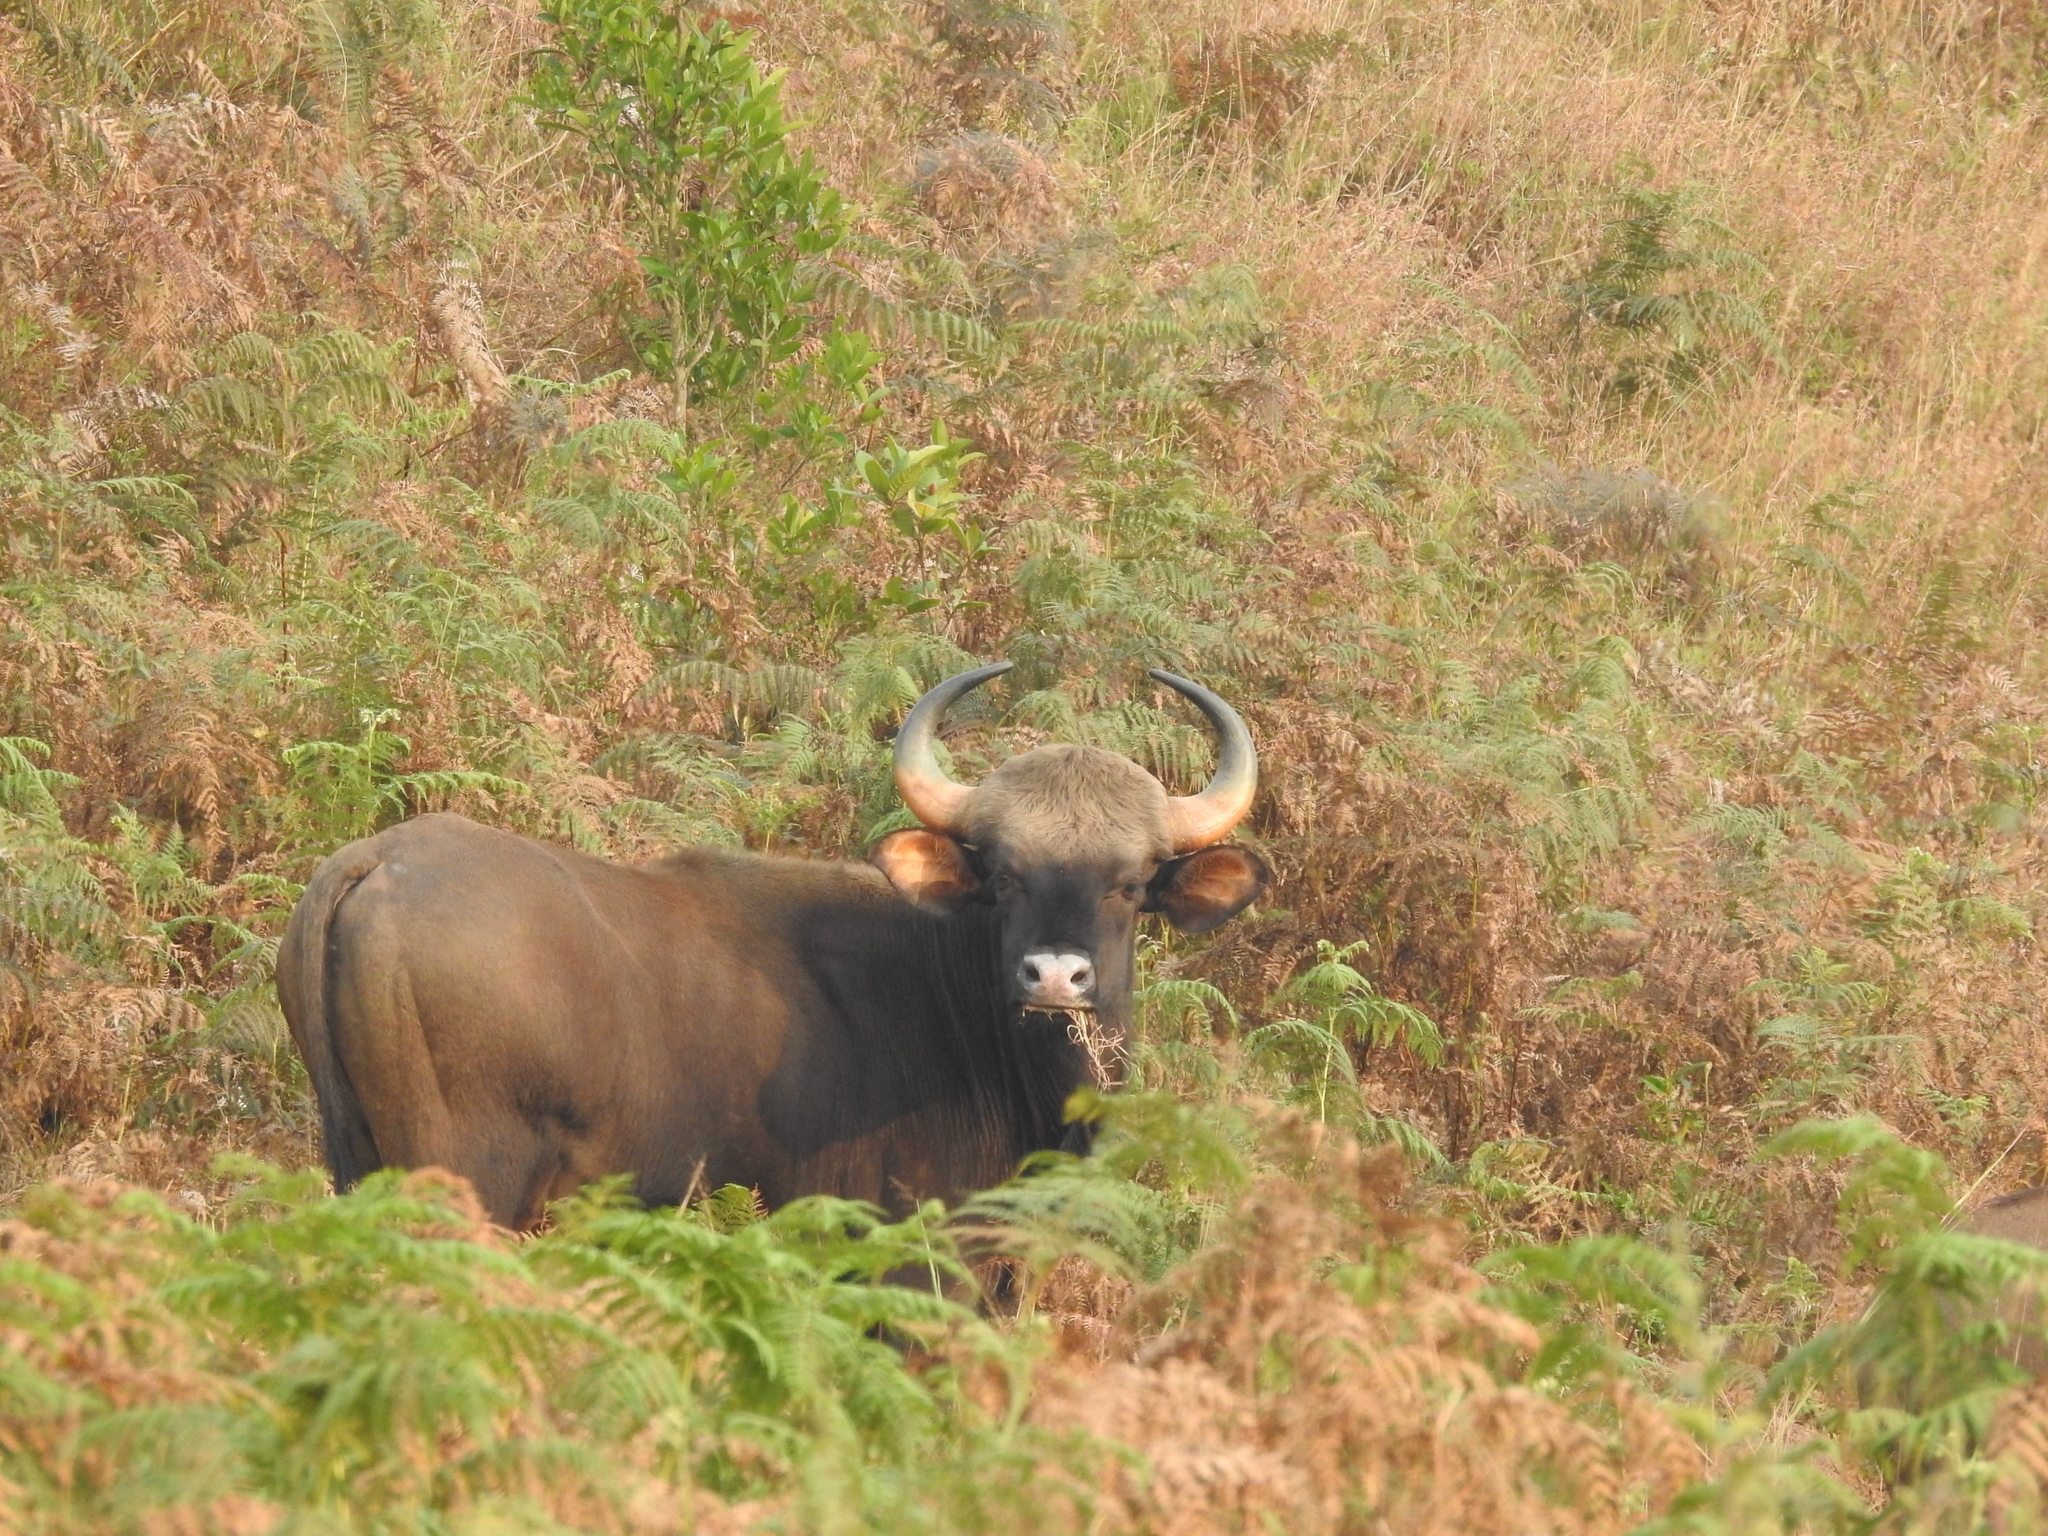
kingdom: Animalia
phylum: Chordata
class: Mammalia
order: Artiodactyla
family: Bovidae
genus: Bos
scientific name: Bos frontalis
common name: Gaur
